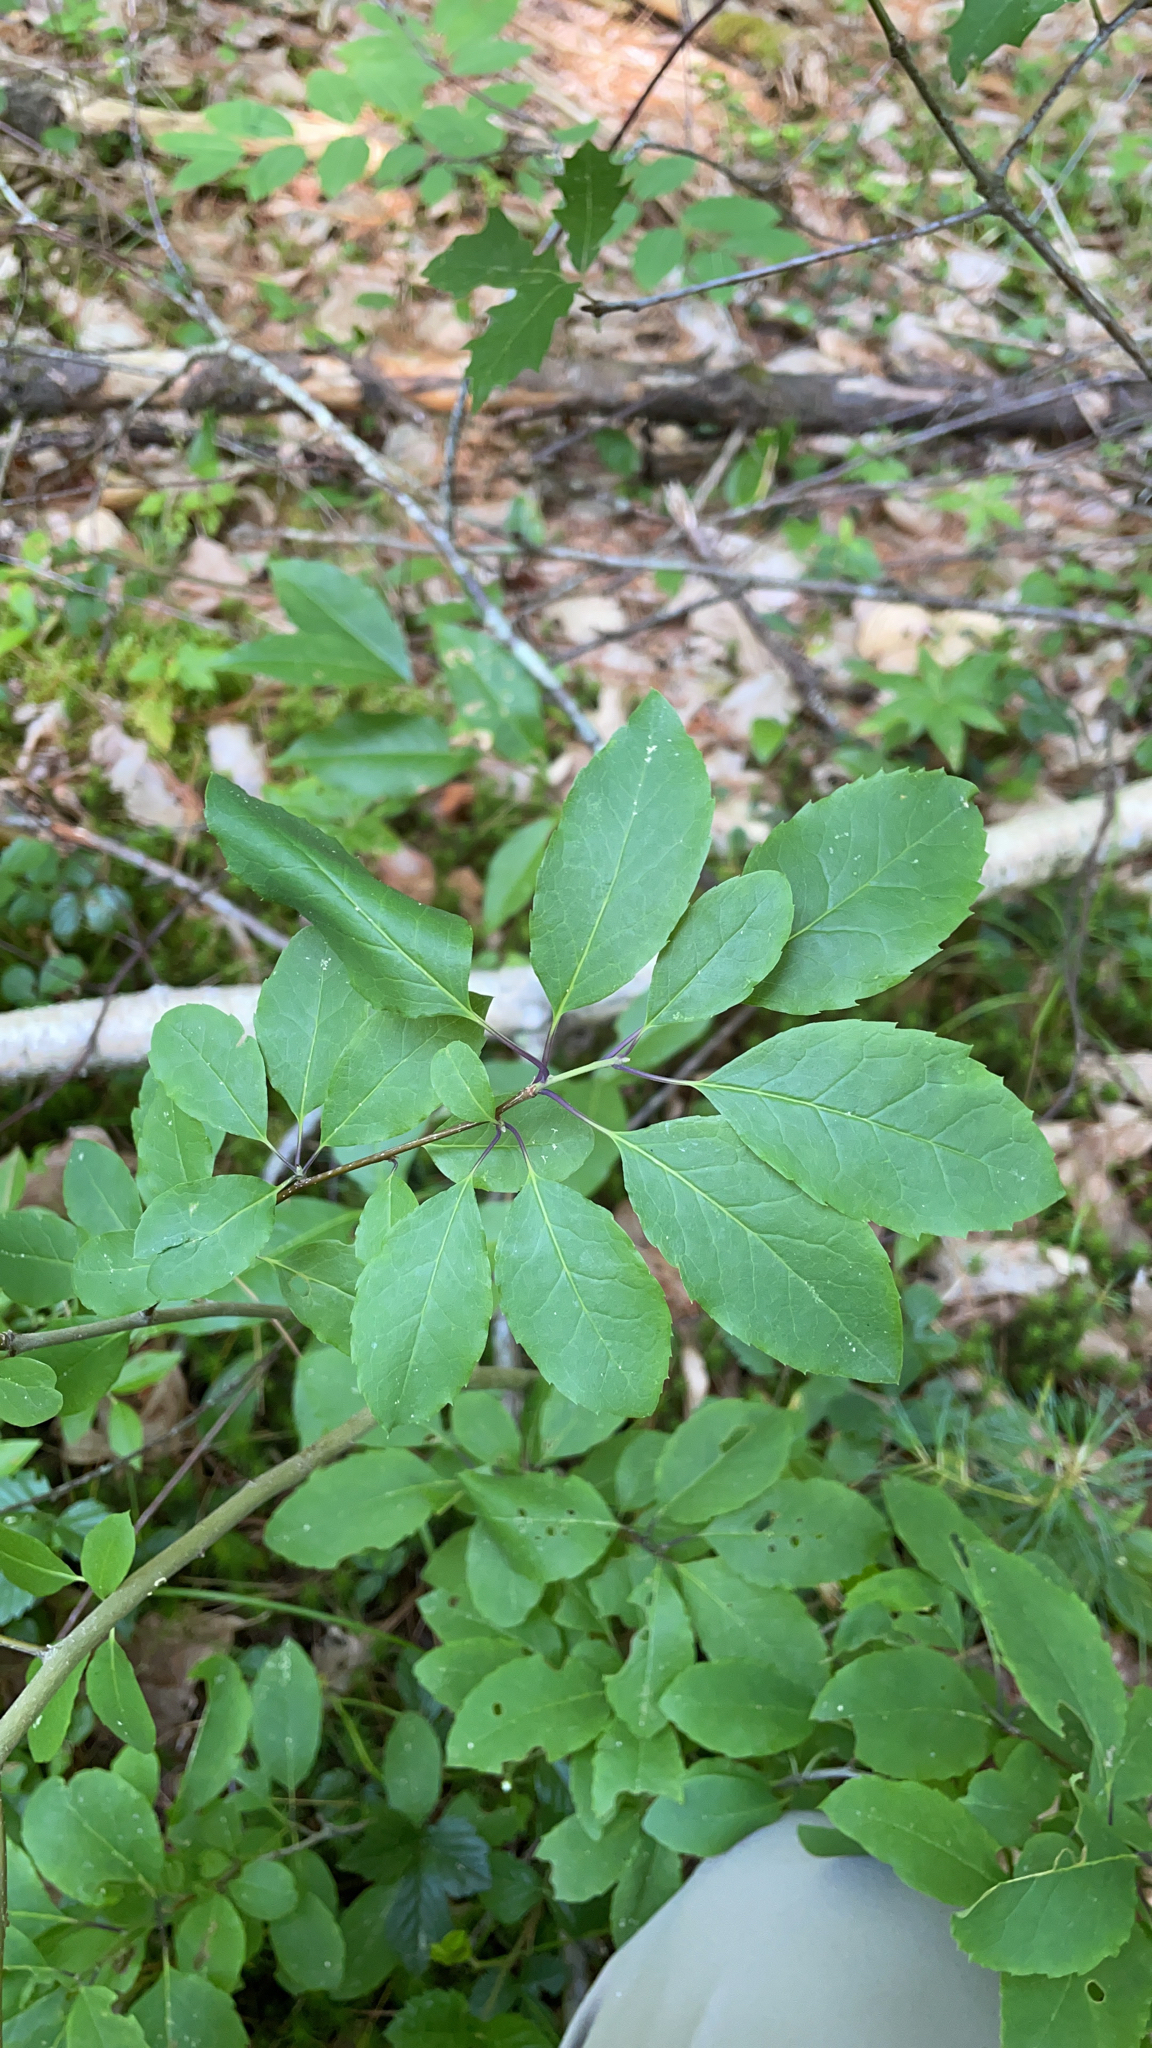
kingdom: Plantae
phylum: Tracheophyta
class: Magnoliopsida
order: Aquifoliales
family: Aquifoliaceae
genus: Ilex
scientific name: Ilex mucronata
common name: Catberry
